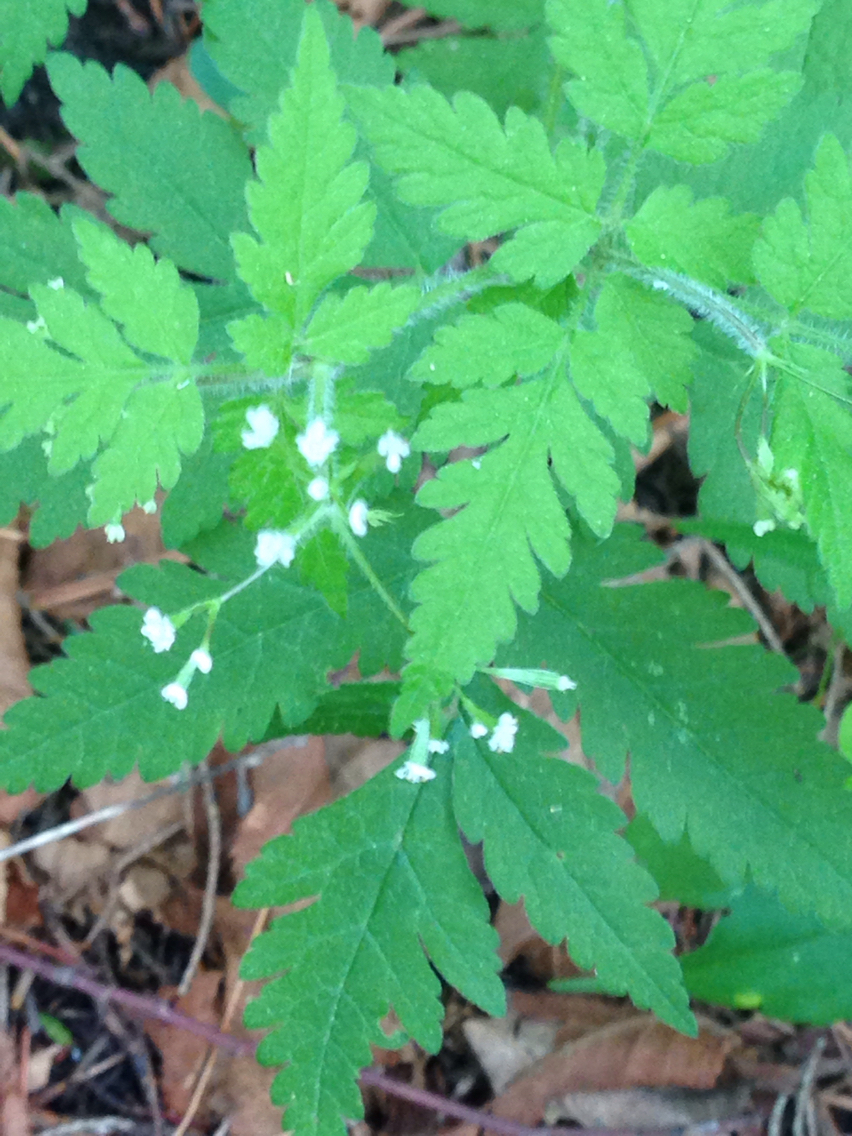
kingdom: Plantae
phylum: Tracheophyta
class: Magnoliopsida
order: Apiales
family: Apiaceae
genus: Osmorhiza
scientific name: Osmorhiza claytonii
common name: Hairy sweet cicely
